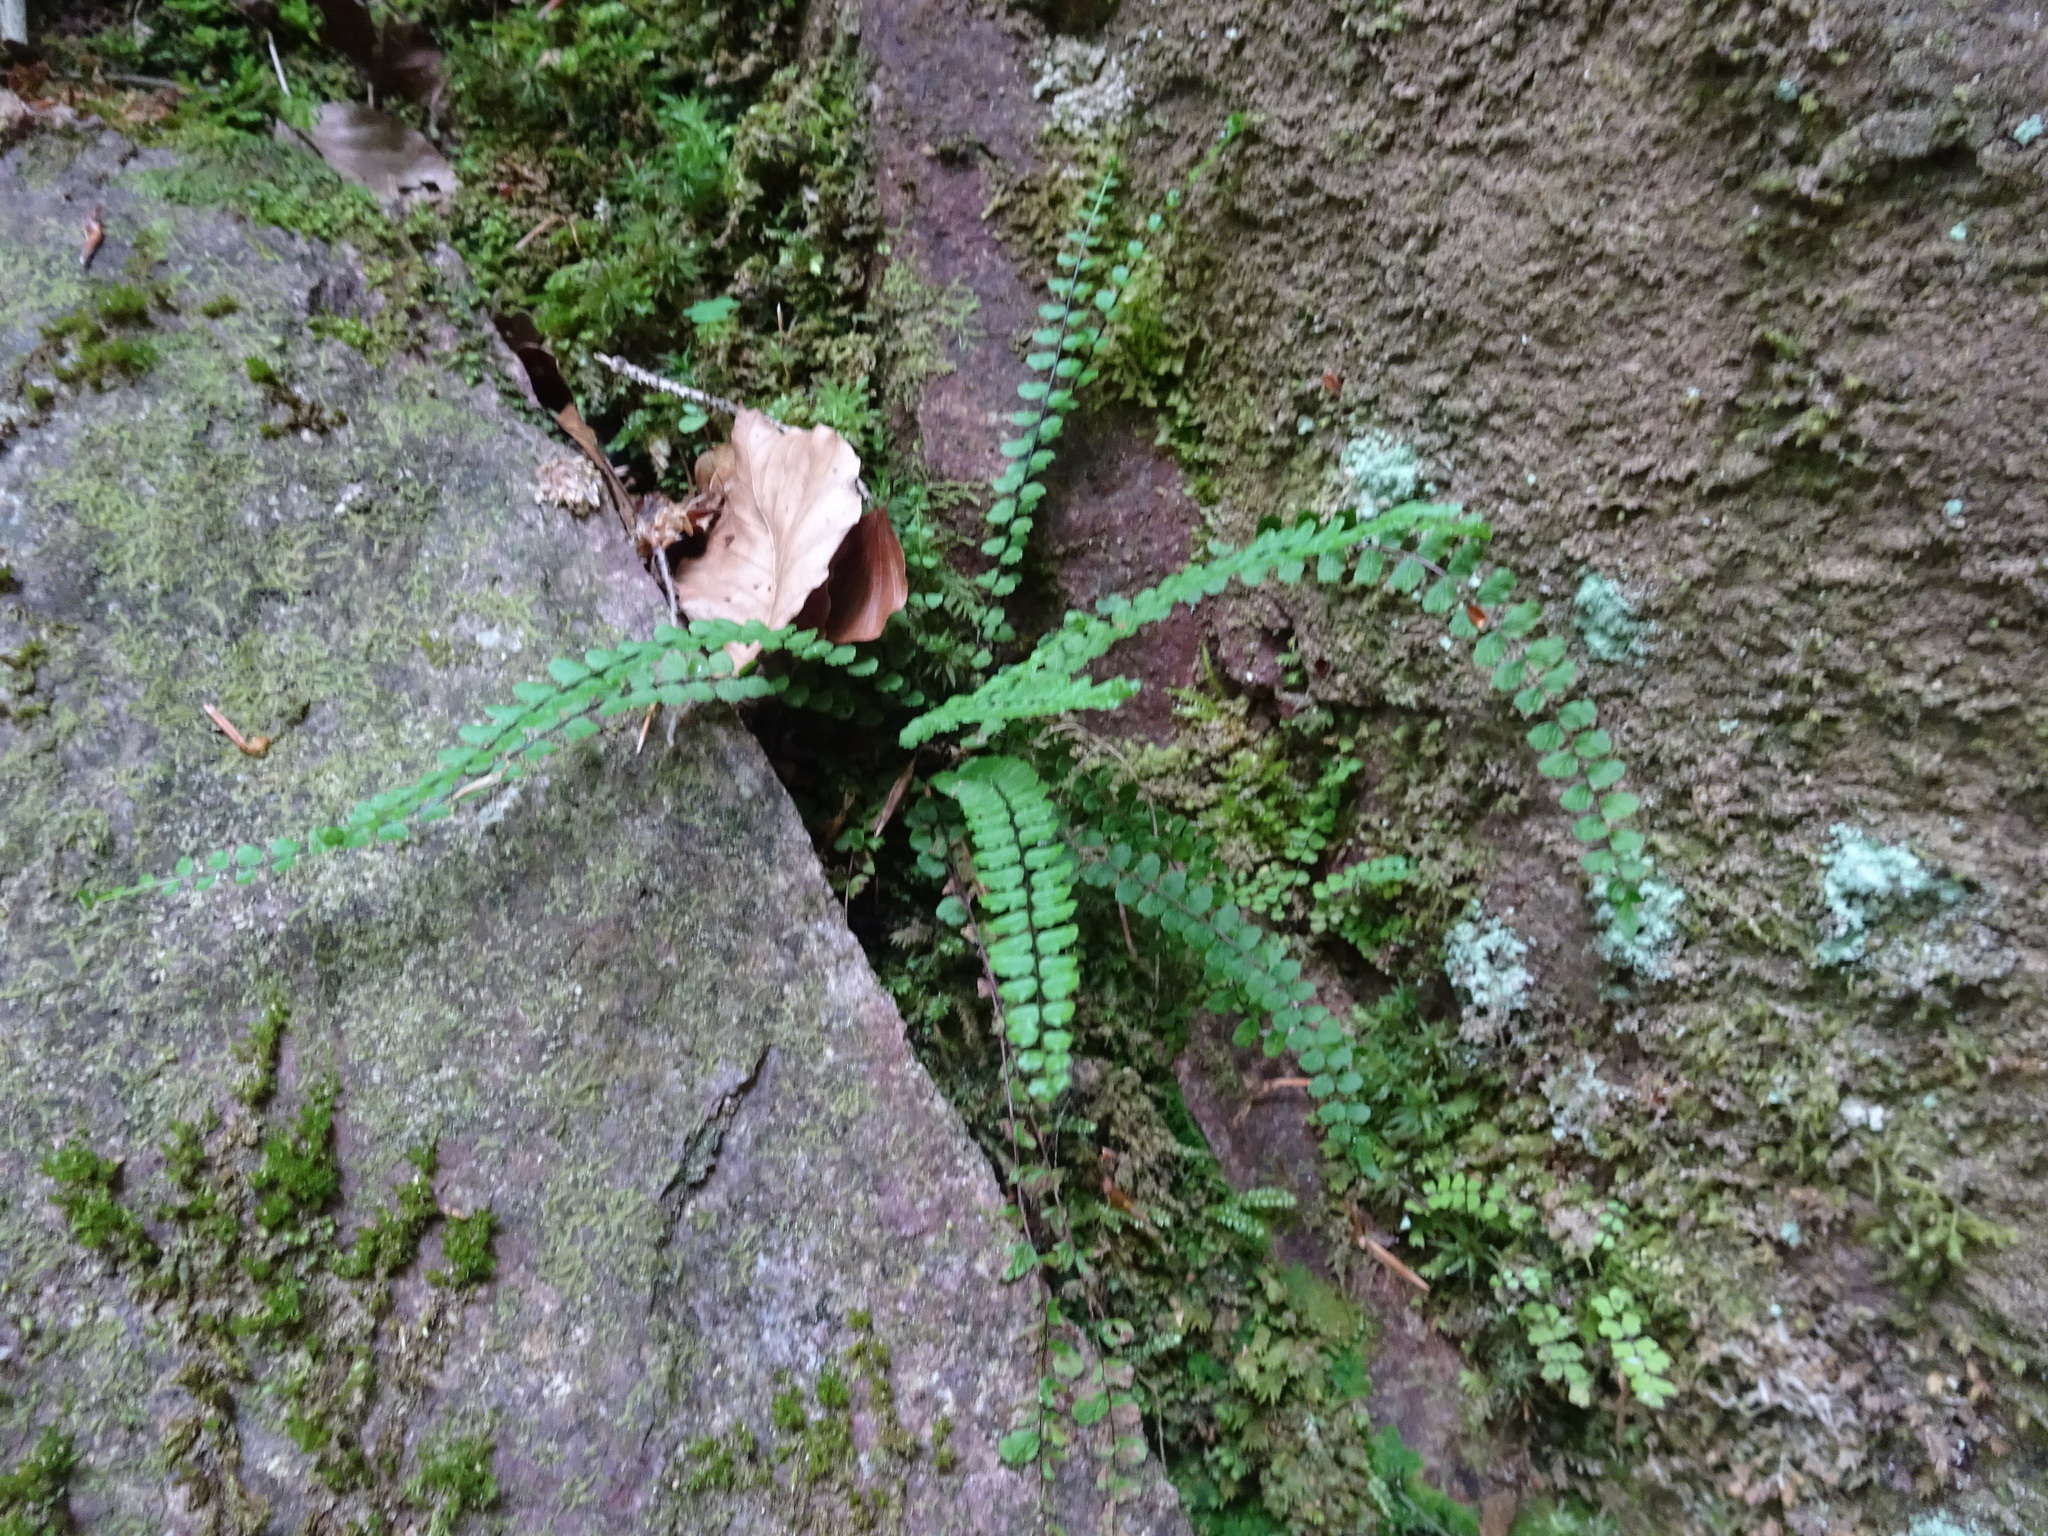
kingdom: Plantae
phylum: Tracheophyta
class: Polypodiopsida
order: Polypodiales
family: Aspleniaceae
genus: Asplenium
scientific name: Asplenium trichomanes
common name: Maidenhair spleenwort
